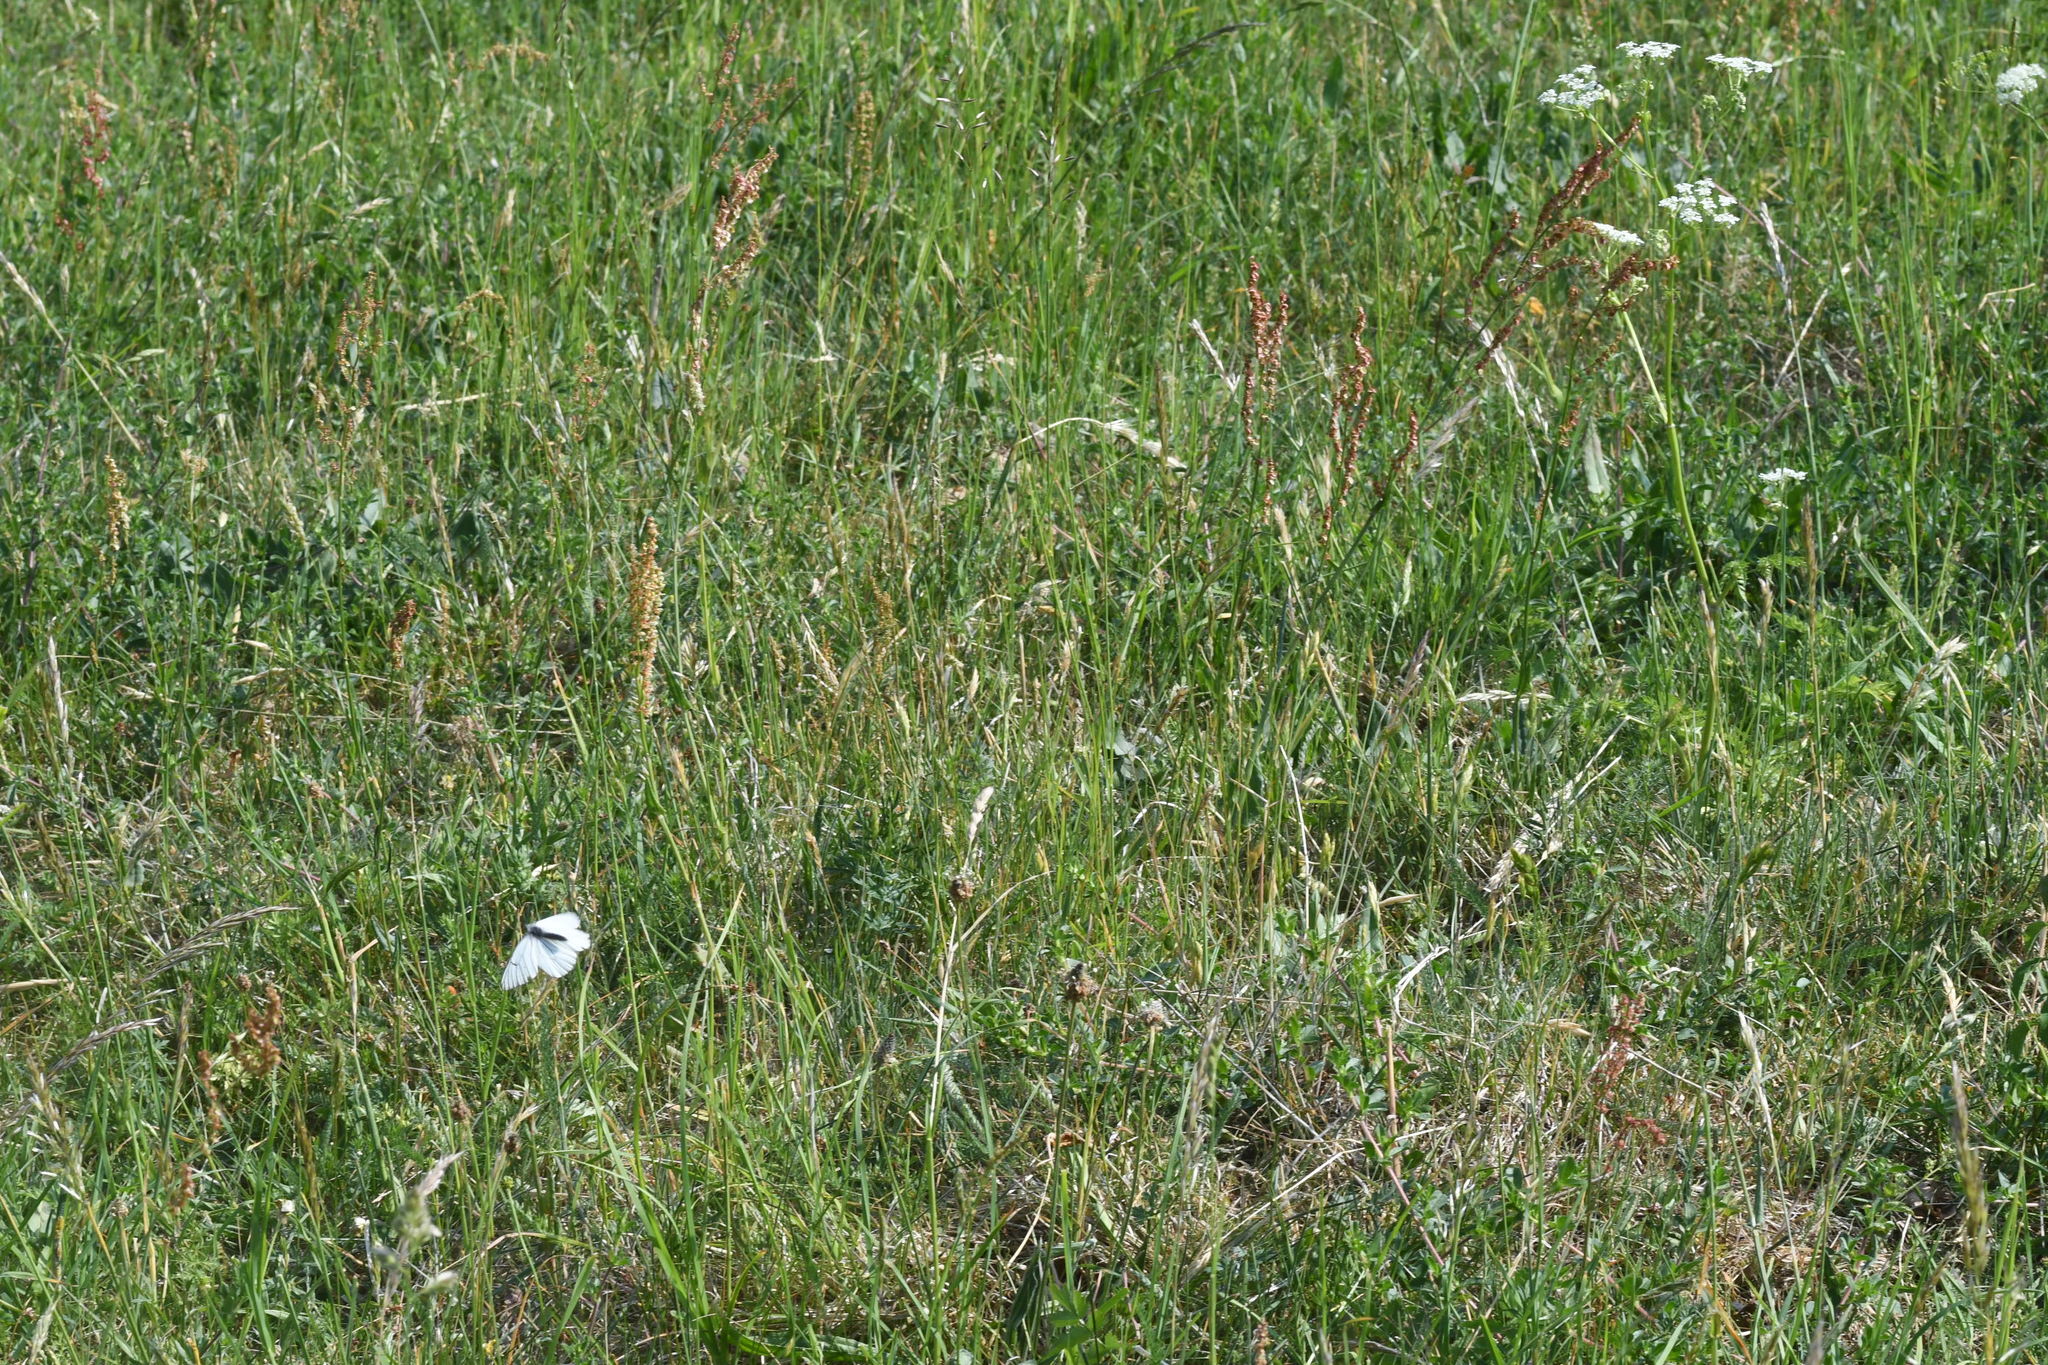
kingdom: Animalia
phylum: Arthropoda
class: Insecta
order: Lepidoptera
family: Pieridae
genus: Aporia
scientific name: Aporia crataegi
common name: Black-veined white
